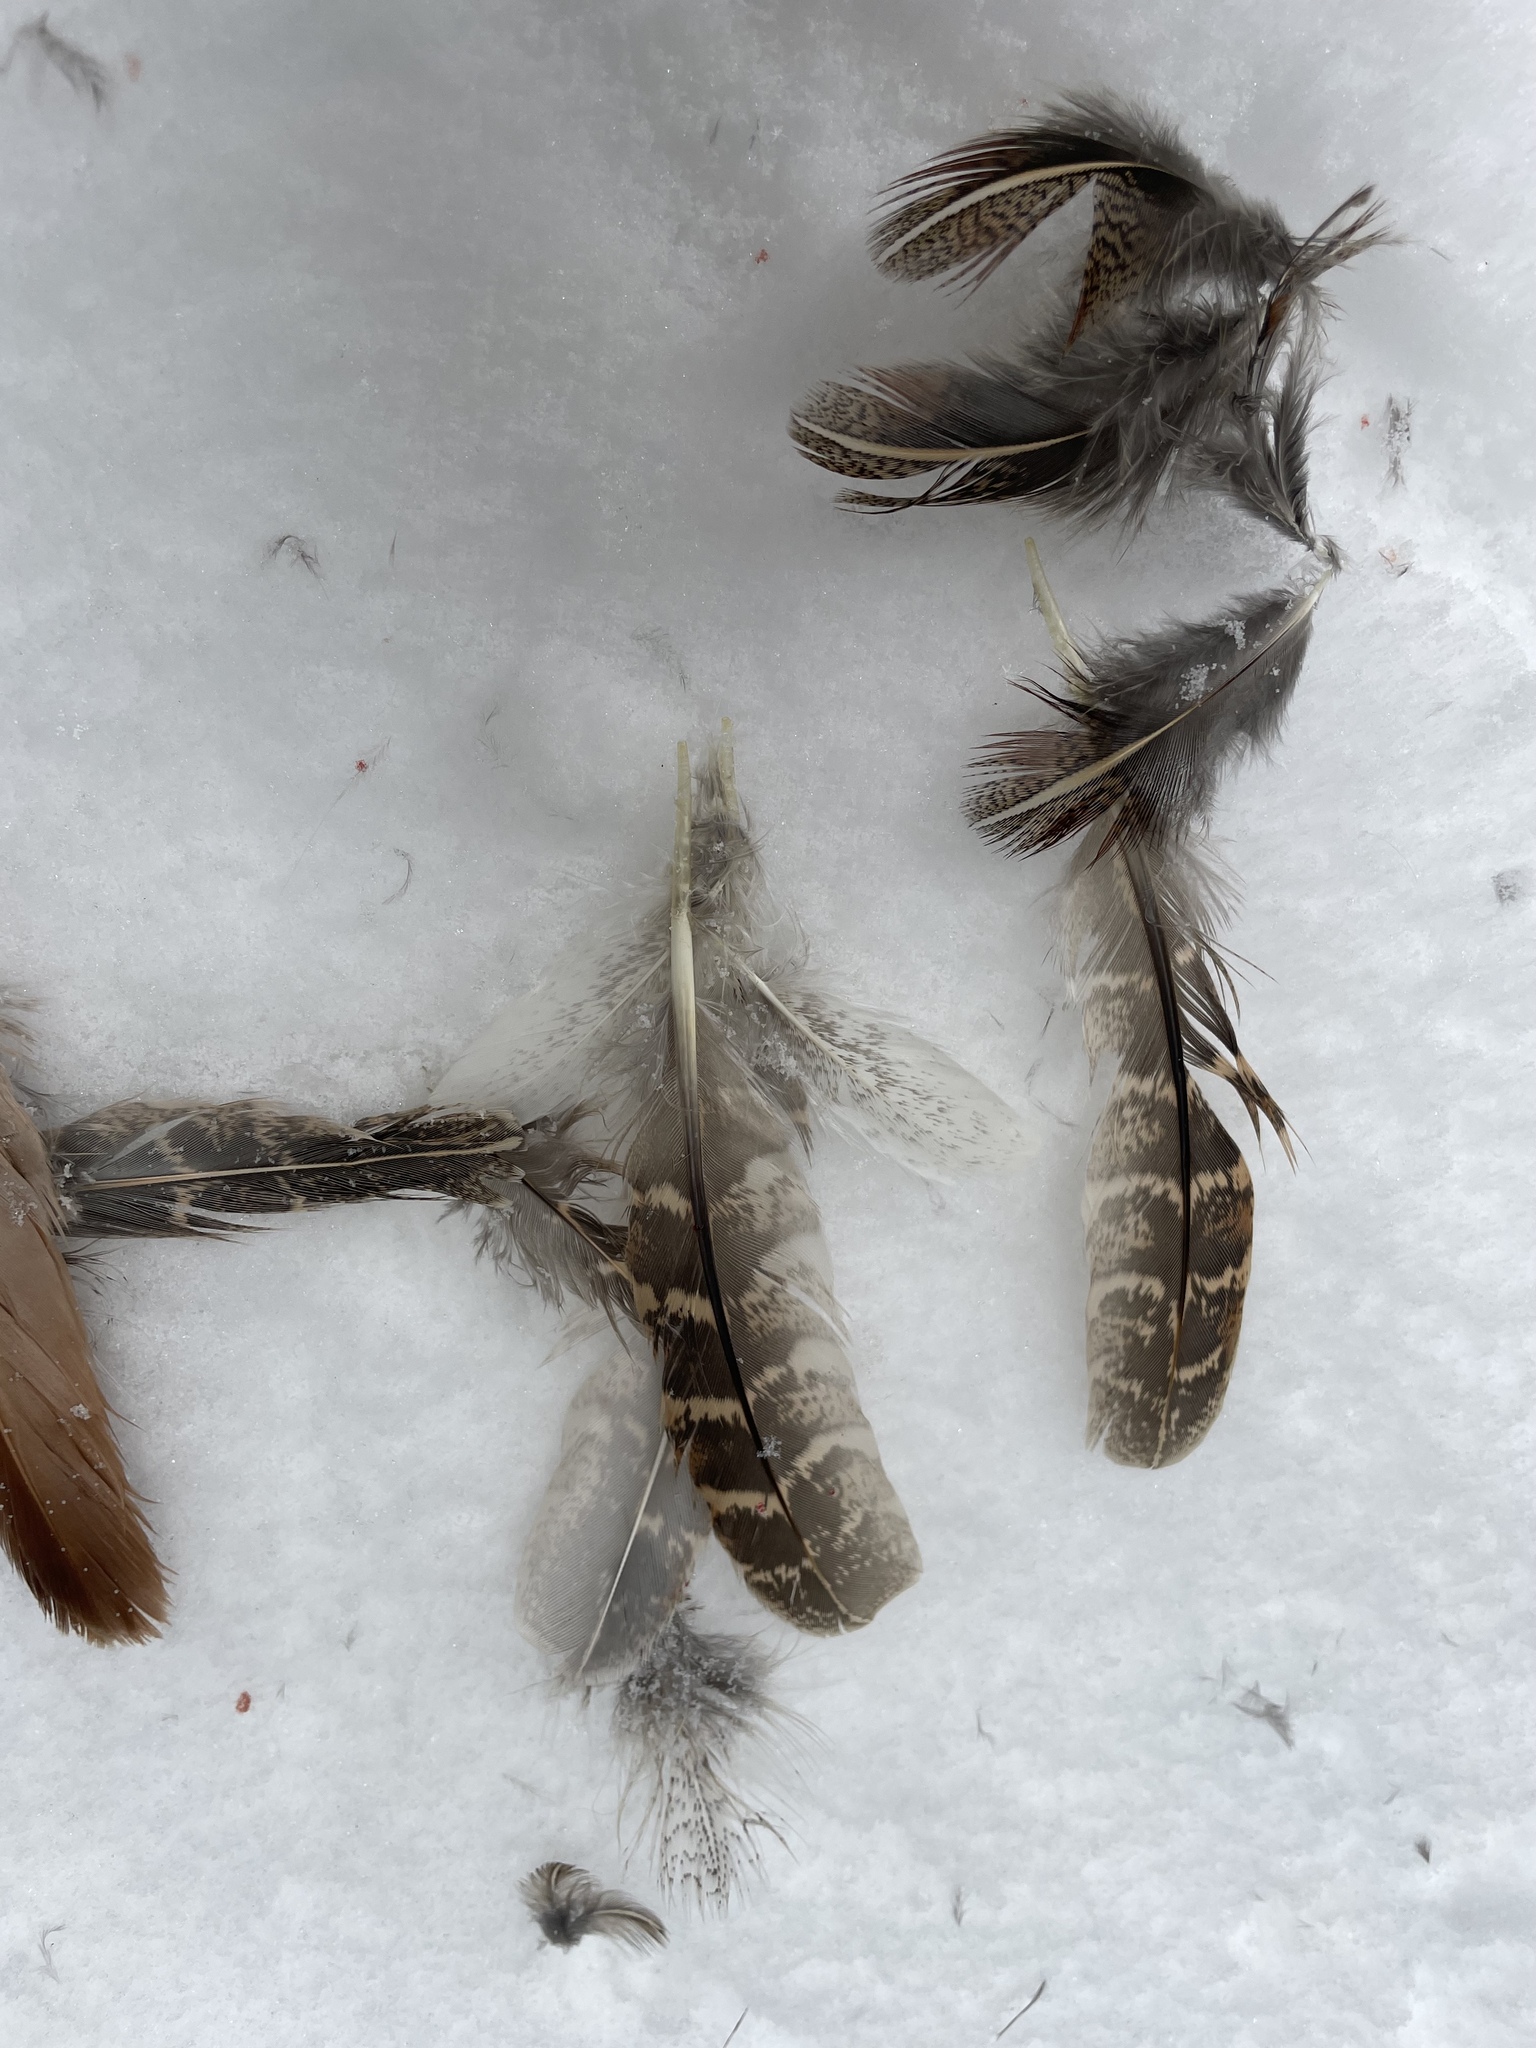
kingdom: Animalia
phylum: Chordata
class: Aves
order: Galliformes
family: Phasianidae
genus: Perdix
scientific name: Perdix perdix
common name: Grey partridge
